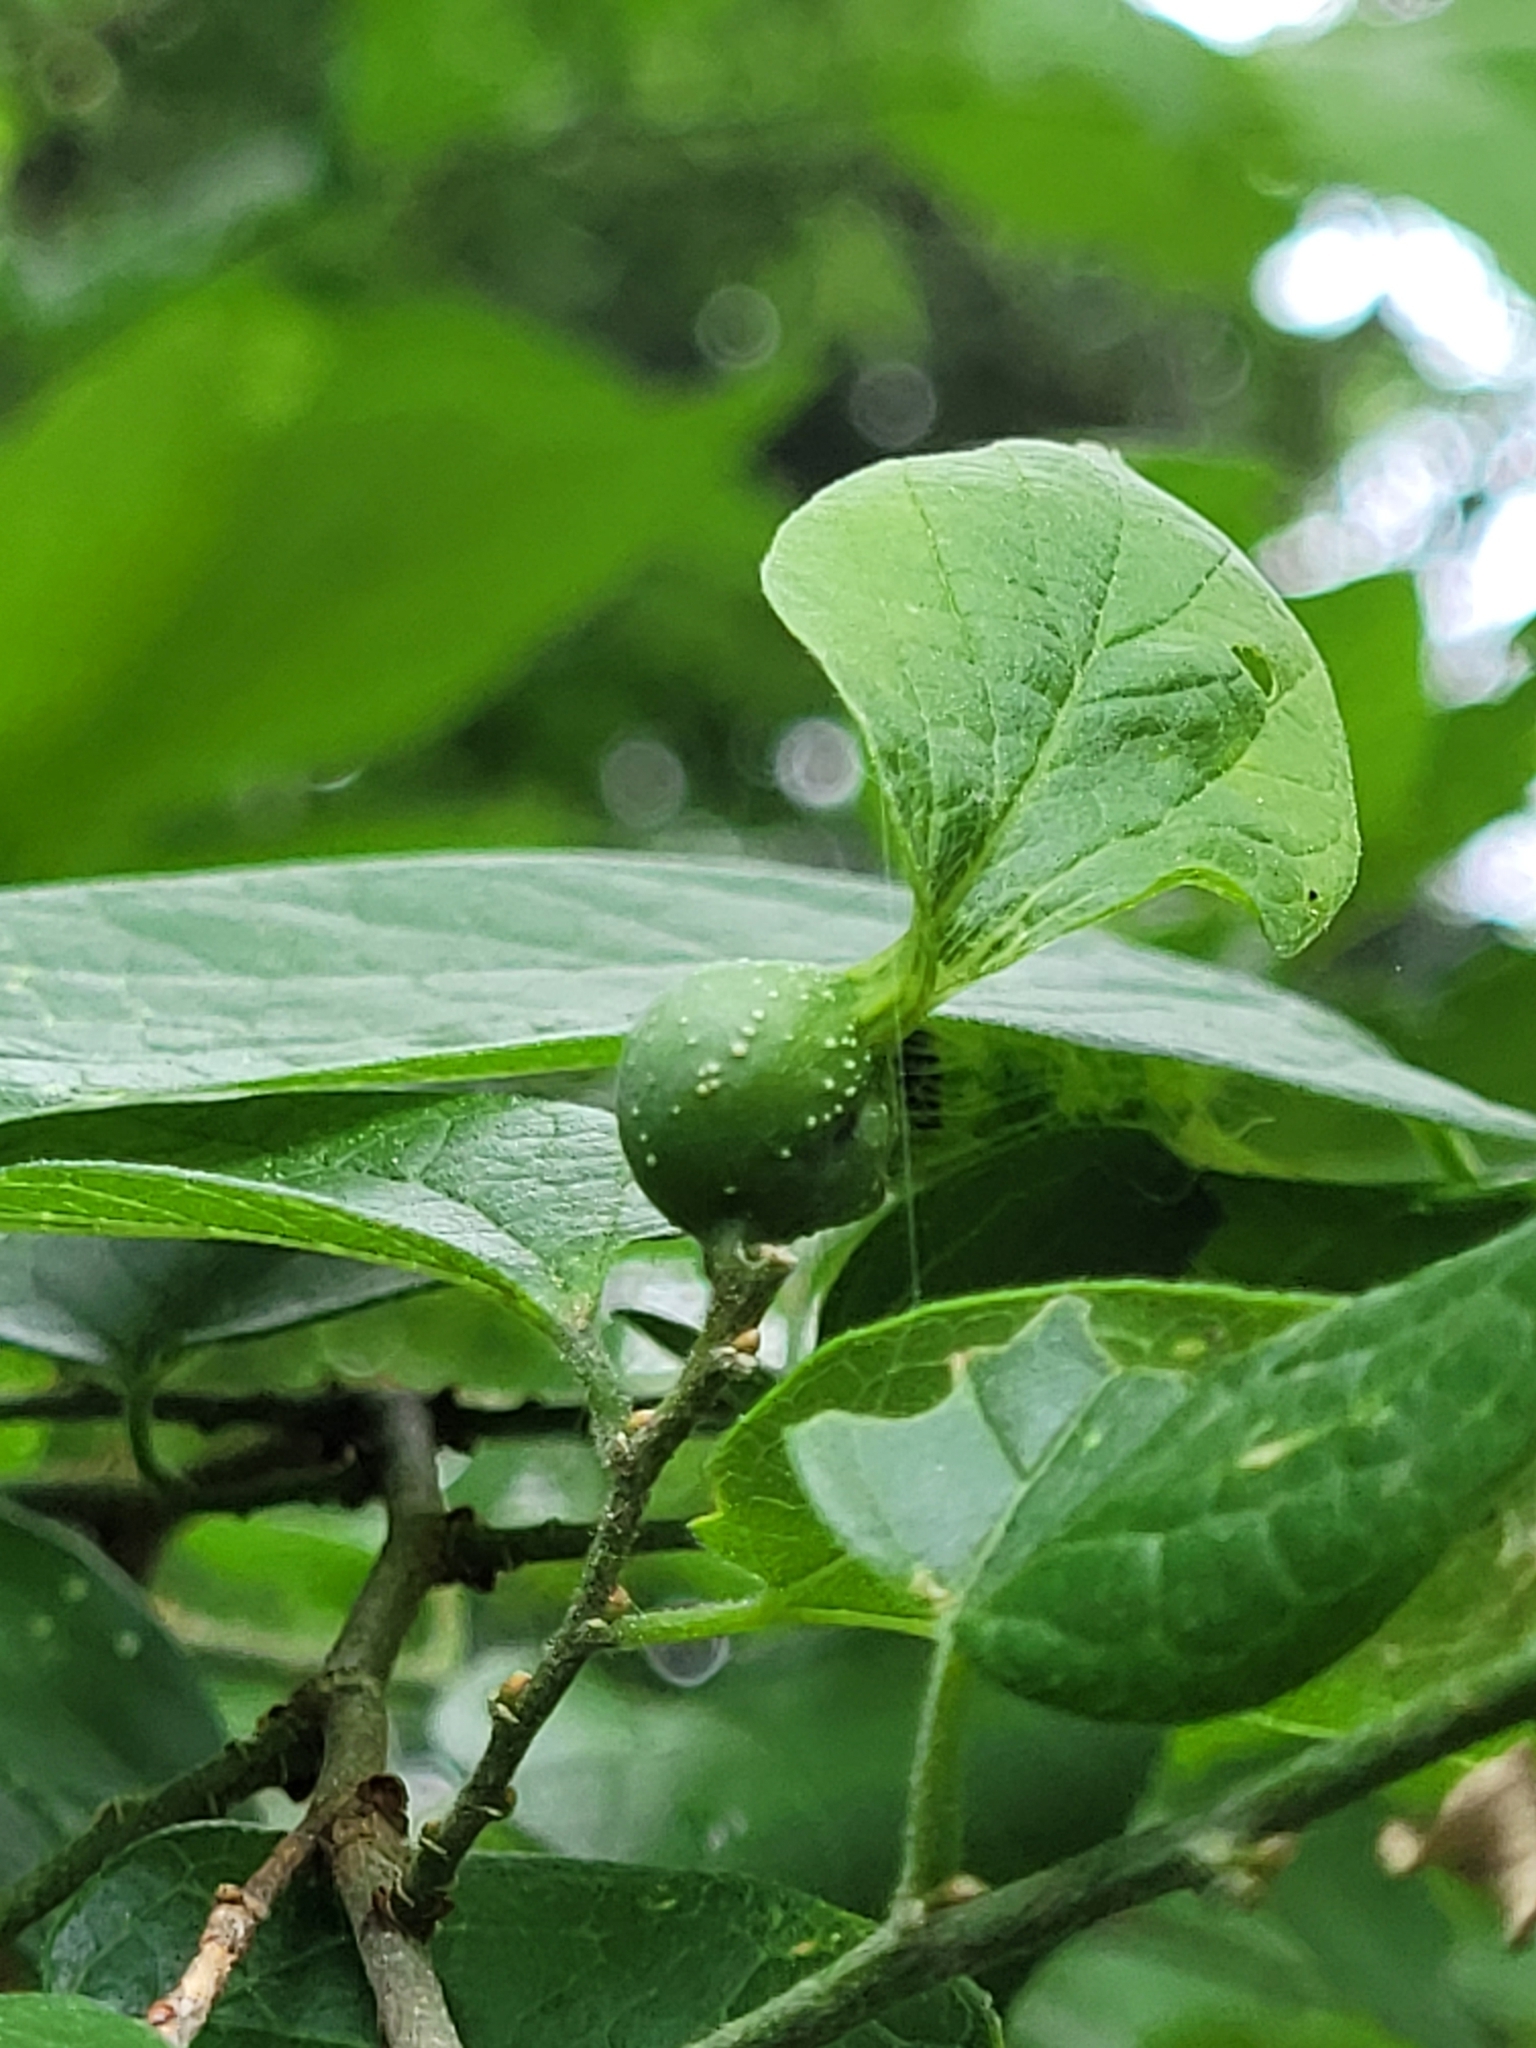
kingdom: Animalia
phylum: Arthropoda
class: Insecta
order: Hemiptera
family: Aphalaridae
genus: Pachypsylla
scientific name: Pachypsylla venusta
